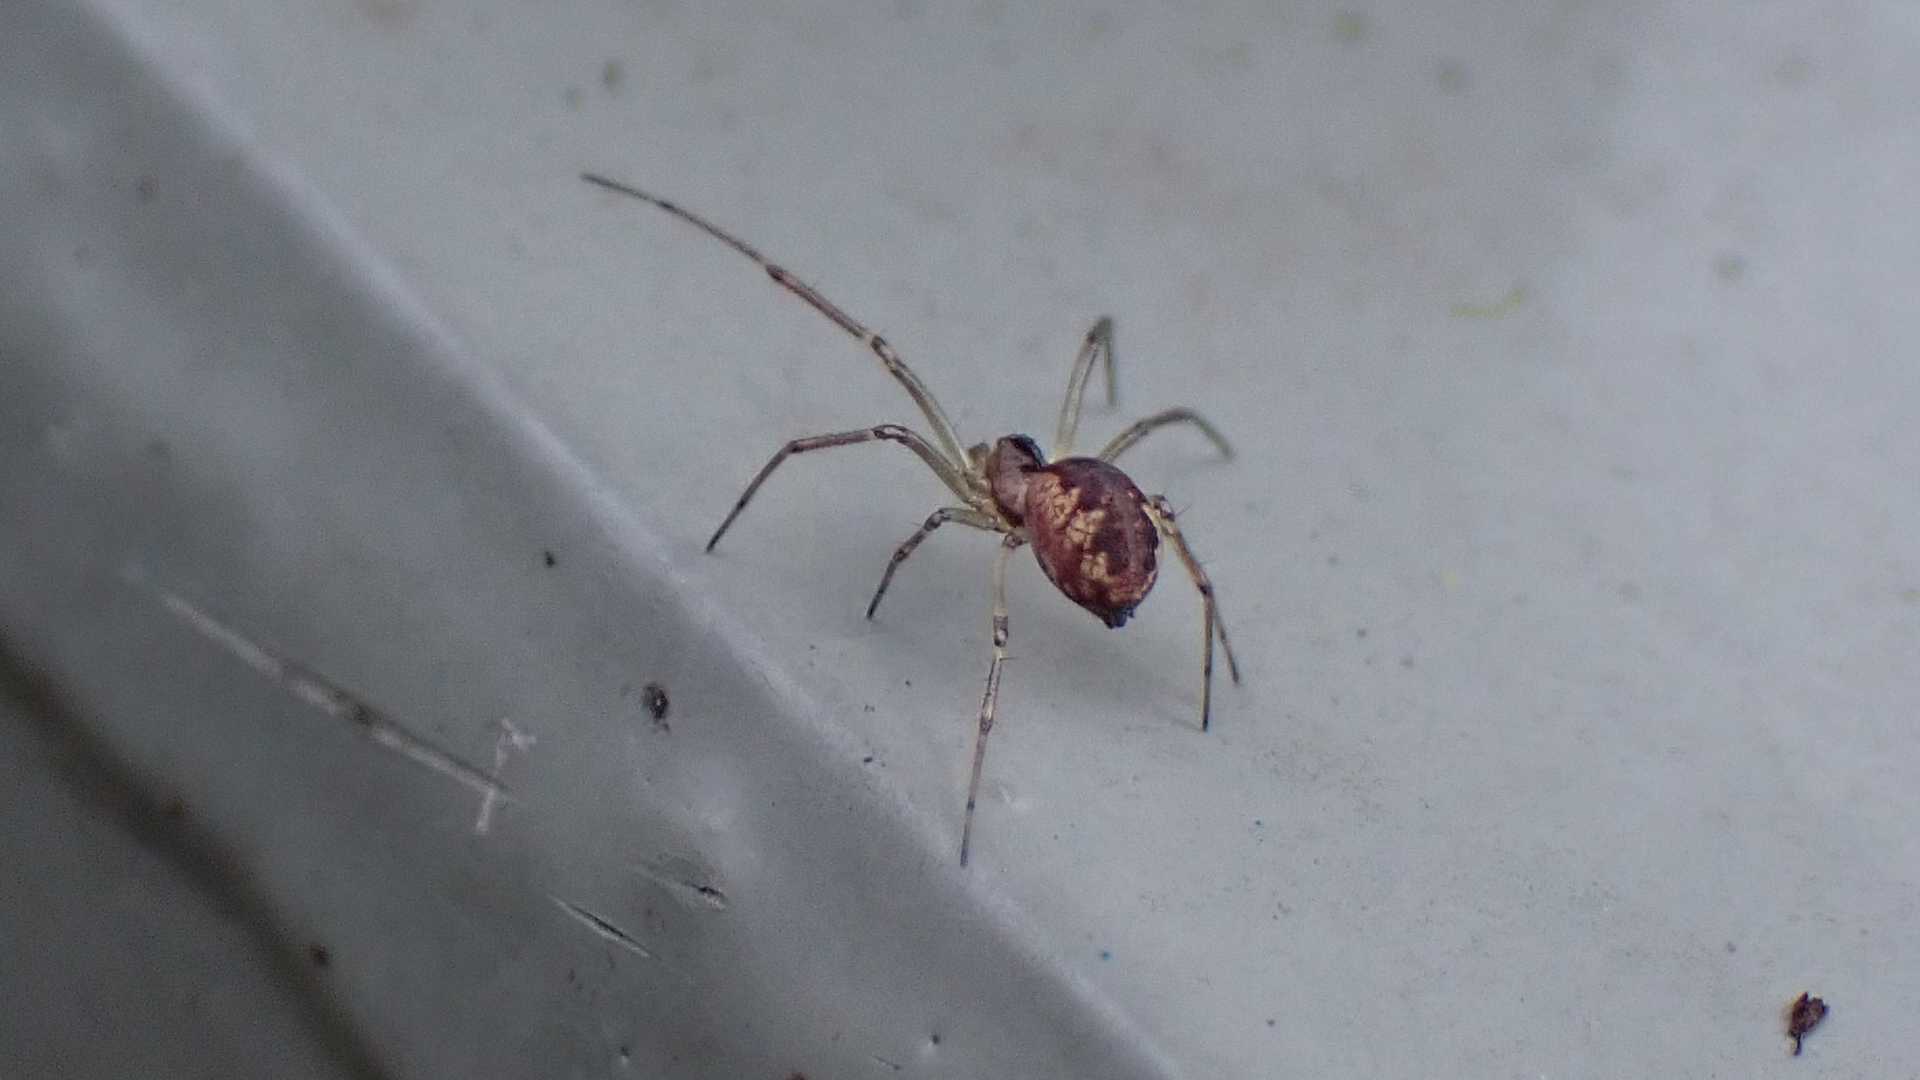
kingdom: Animalia
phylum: Arthropoda
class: Arachnida
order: Araneae
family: Linyphiidae
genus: Neriene
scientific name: Neriene peltata
